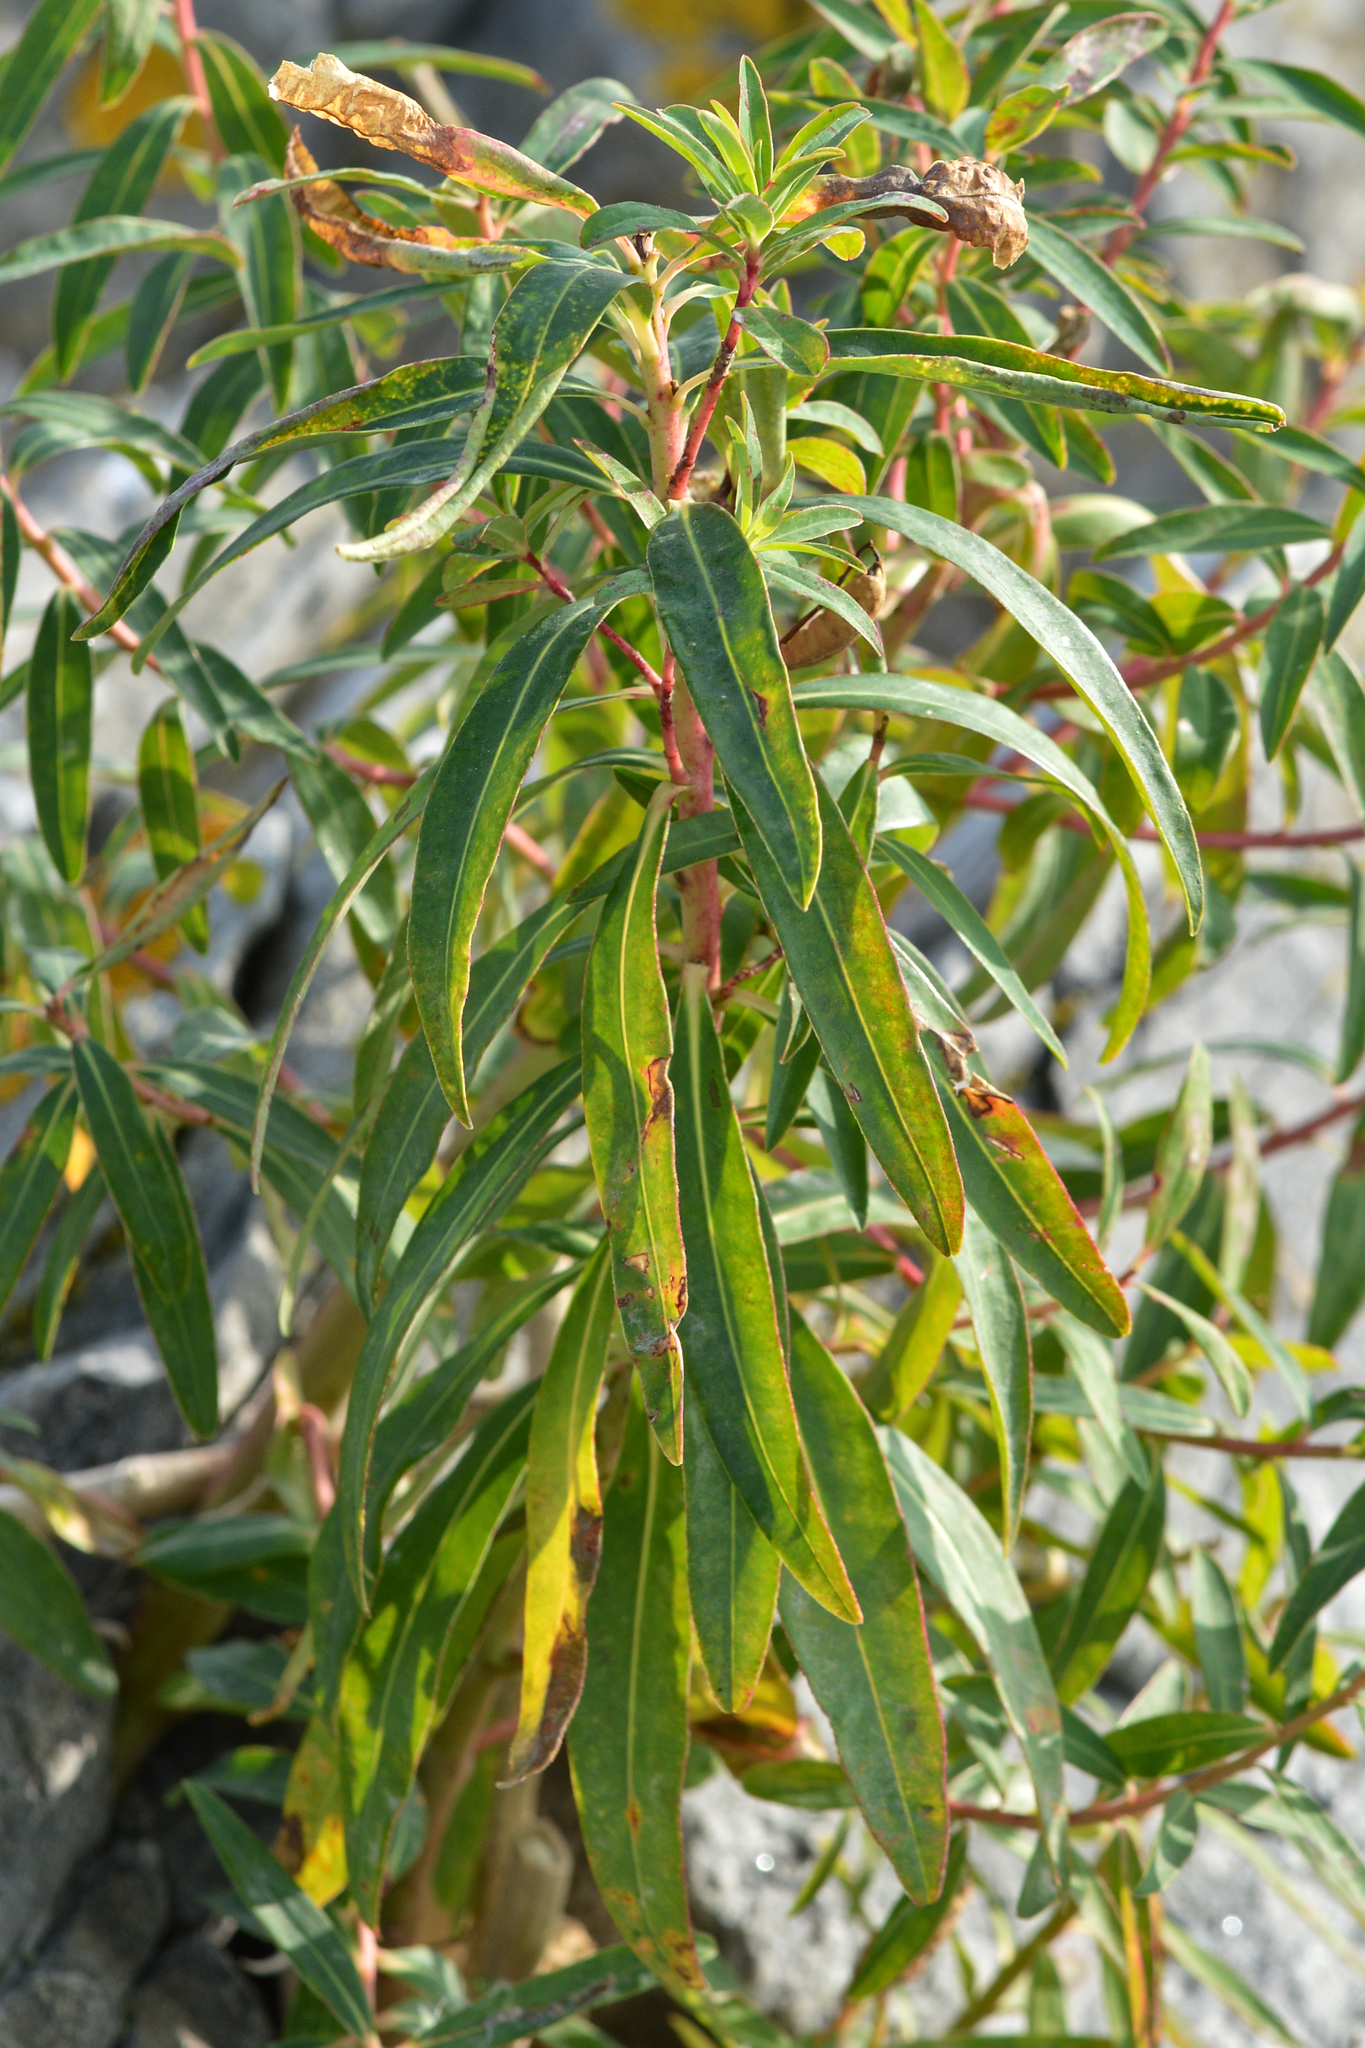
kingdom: Plantae
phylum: Tracheophyta
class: Magnoliopsida
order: Myrtales
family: Onagraceae
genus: Chamaenerion
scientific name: Chamaenerion angustifolium
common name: Fireweed
